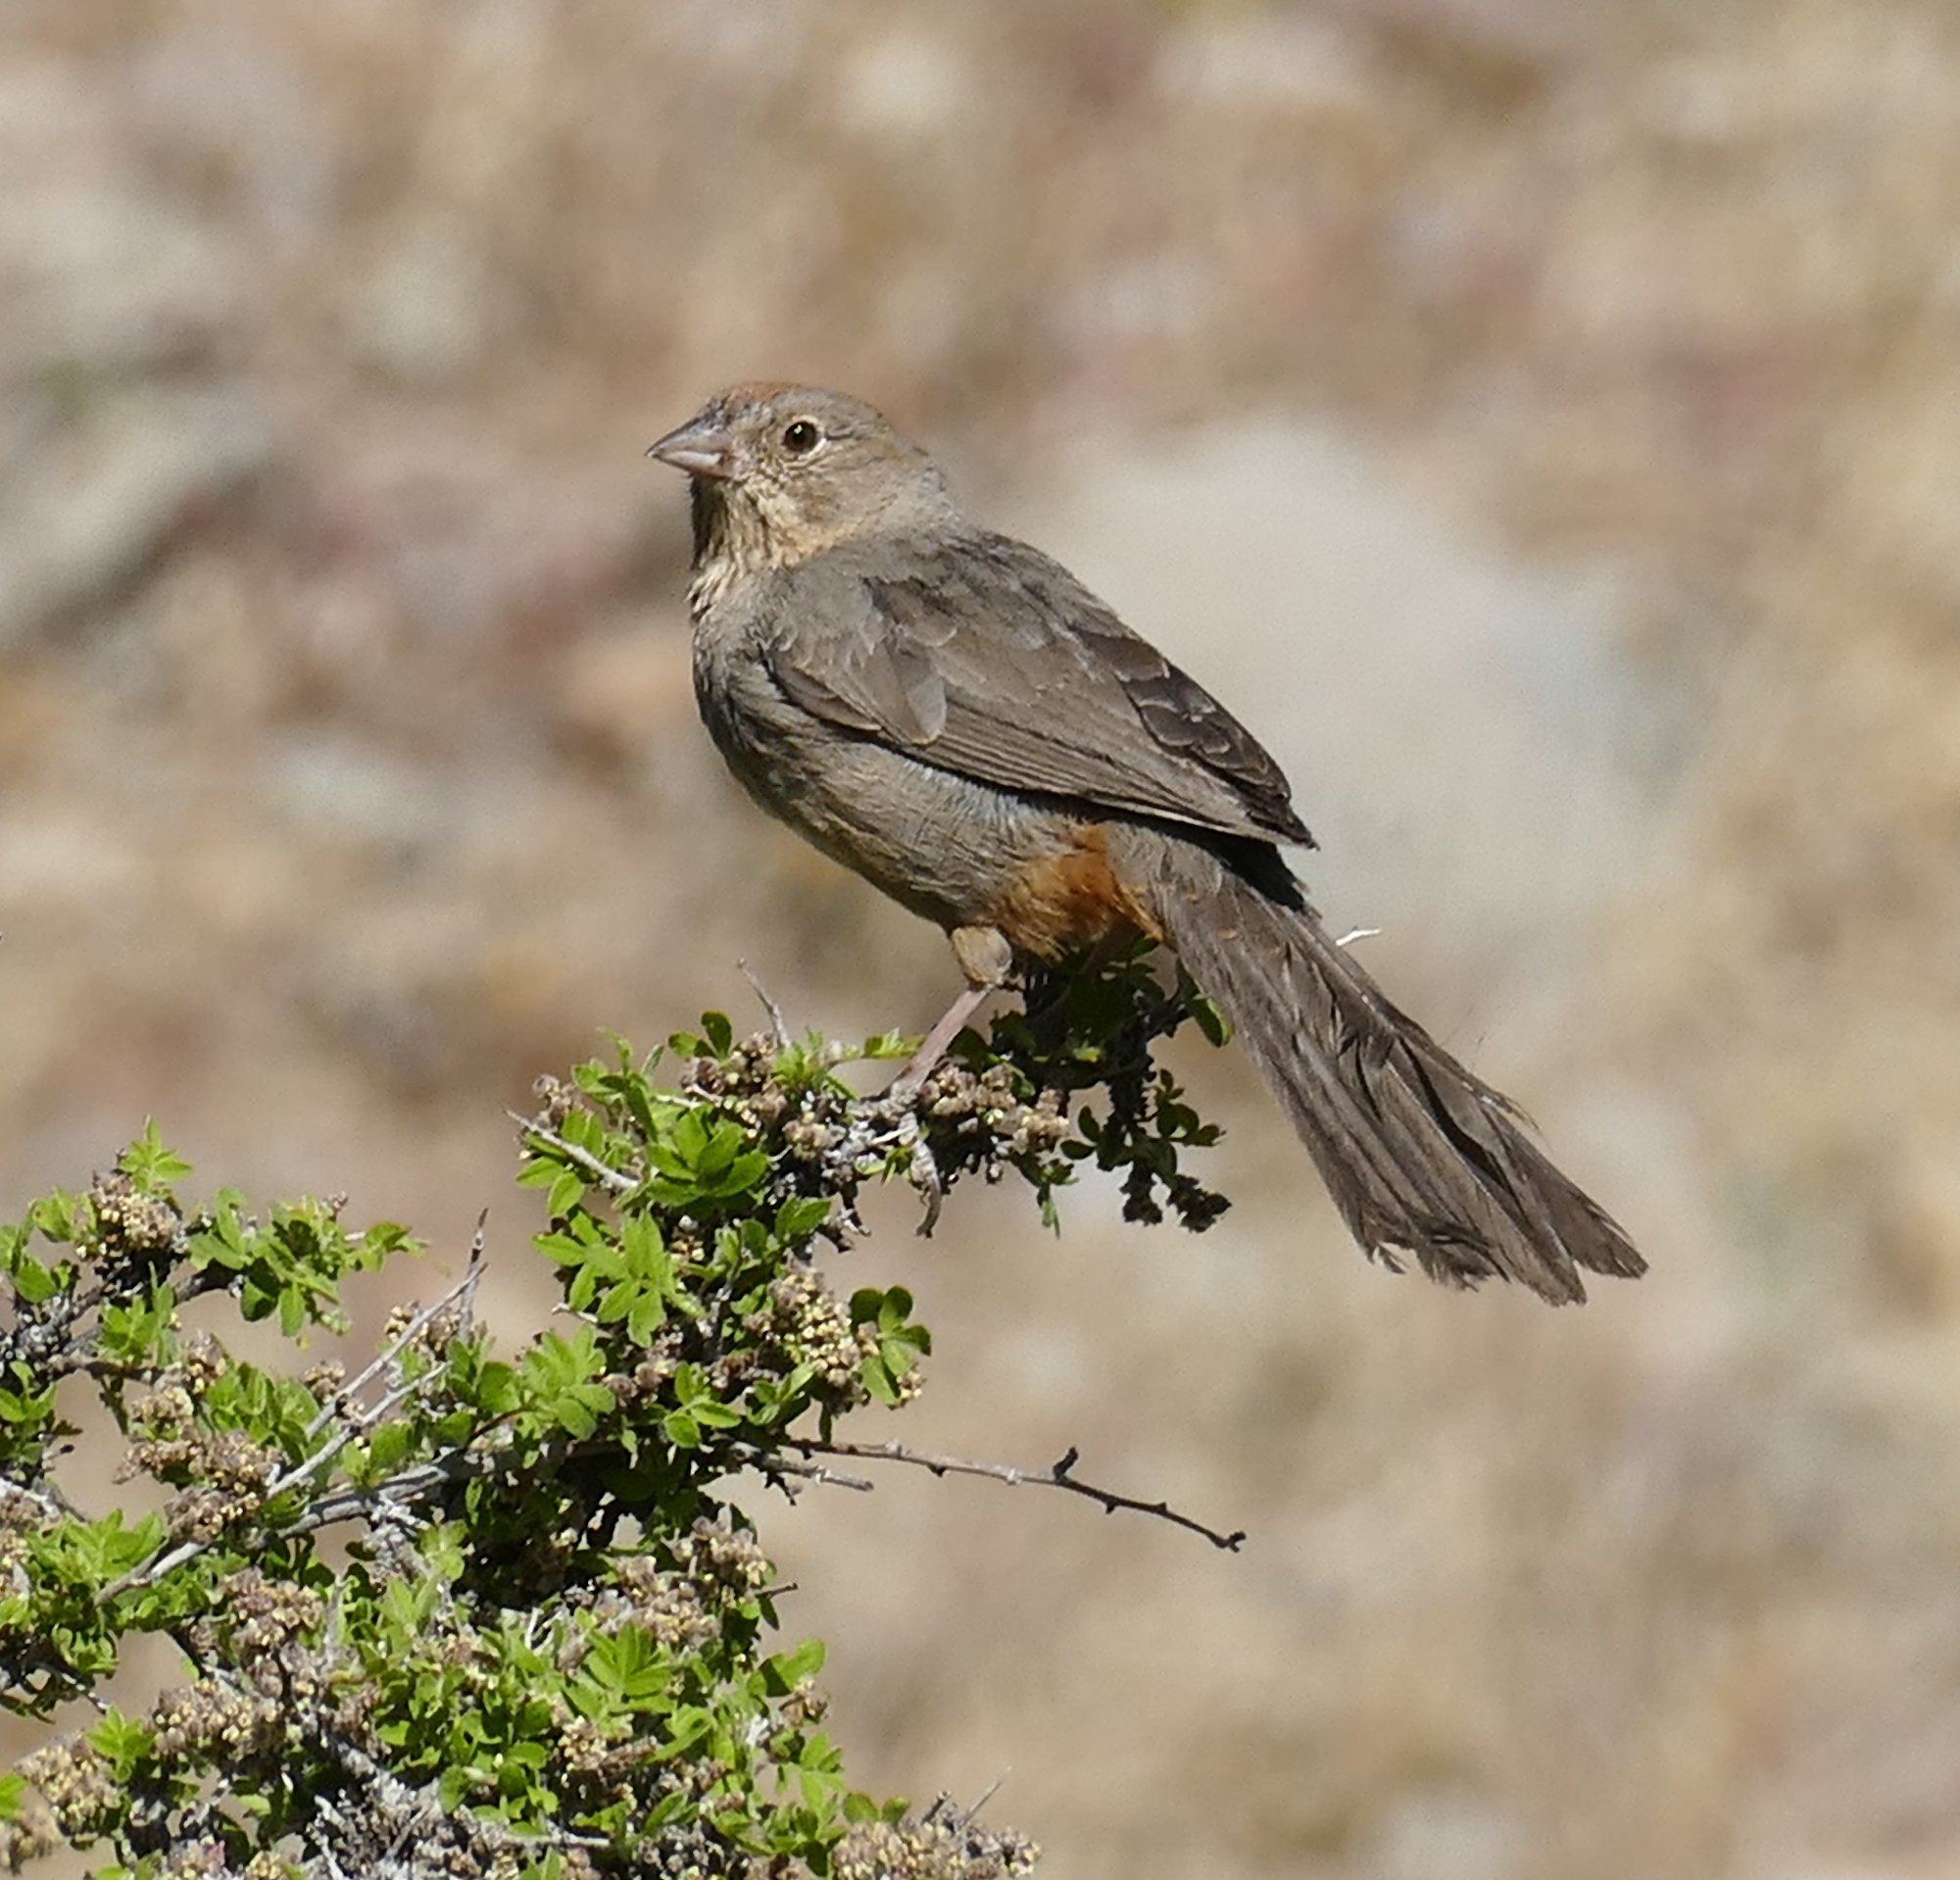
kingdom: Animalia
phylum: Chordata
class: Aves
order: Passeriformes
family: Passerellidae
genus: Melozone
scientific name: Melozone fusca
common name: Canyon towhee
